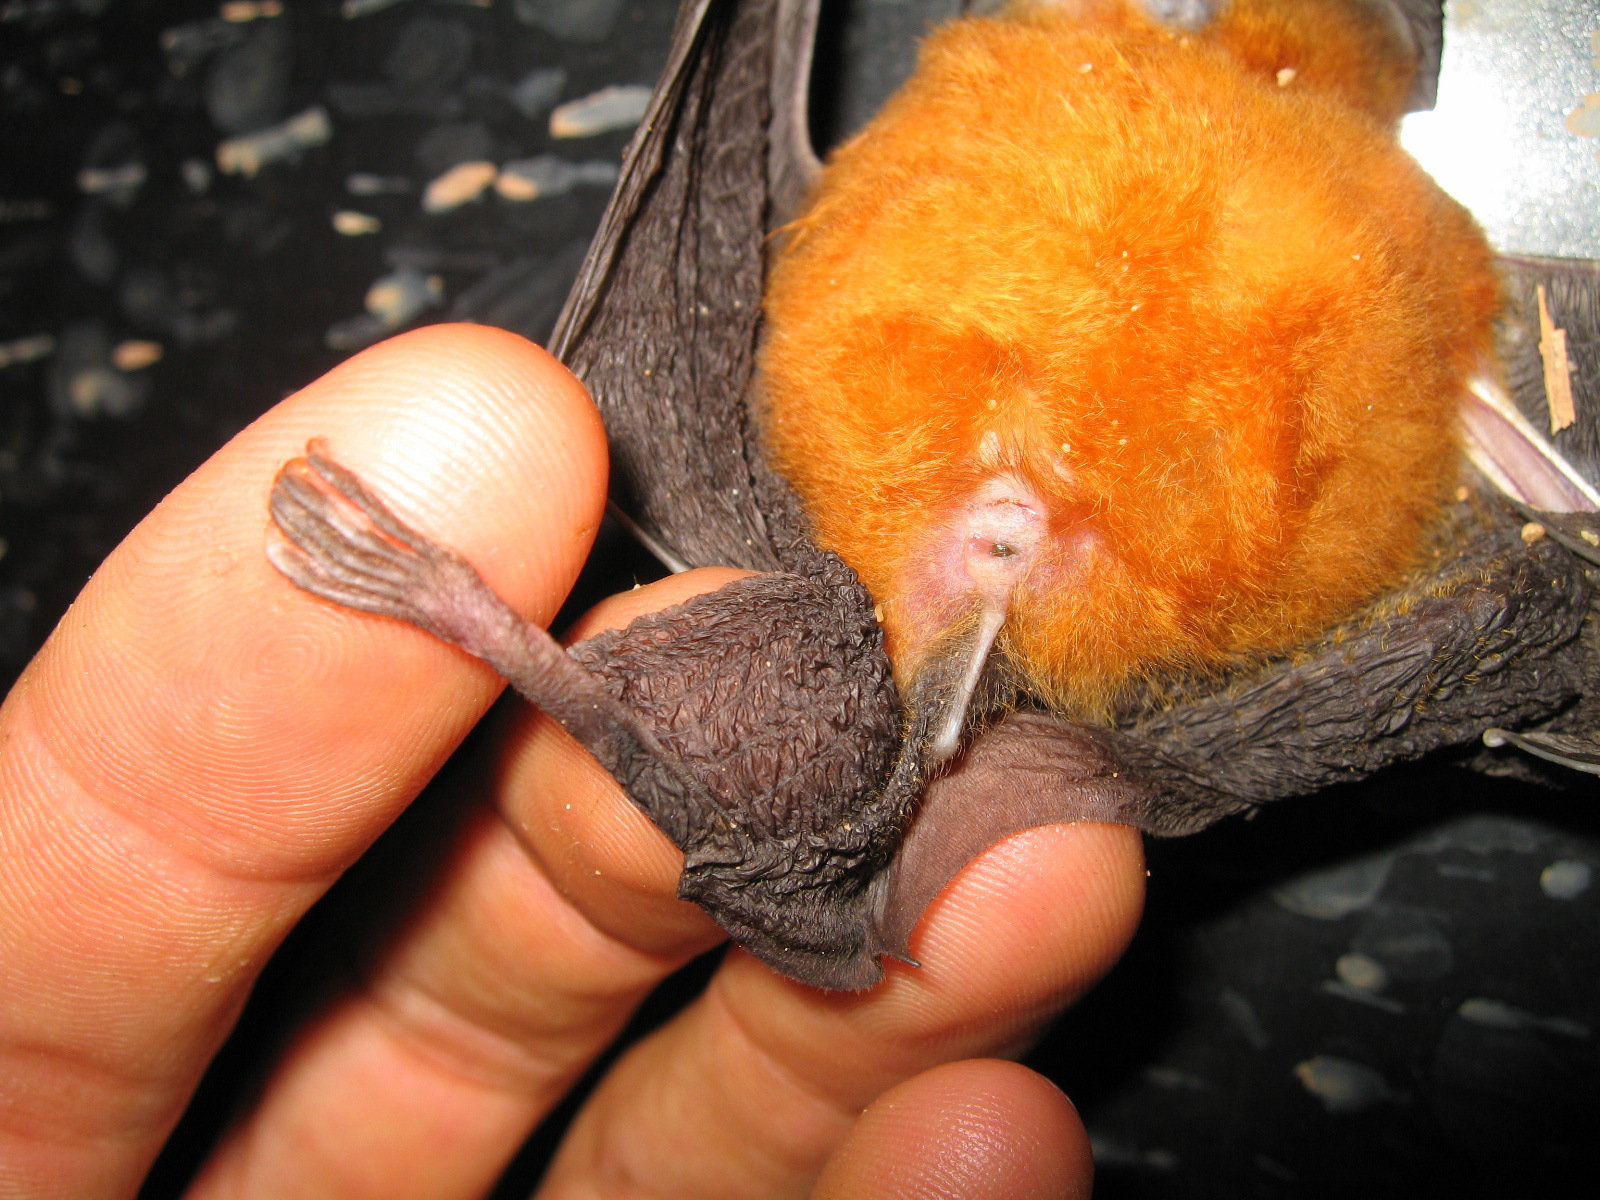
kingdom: Animalia
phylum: Chordata
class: Mammalia
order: Chiroptera
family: Rhinolophidae
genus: Rhinolophus
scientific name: Rhinolophus alcyone
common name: Halcyon horseshoe bat
